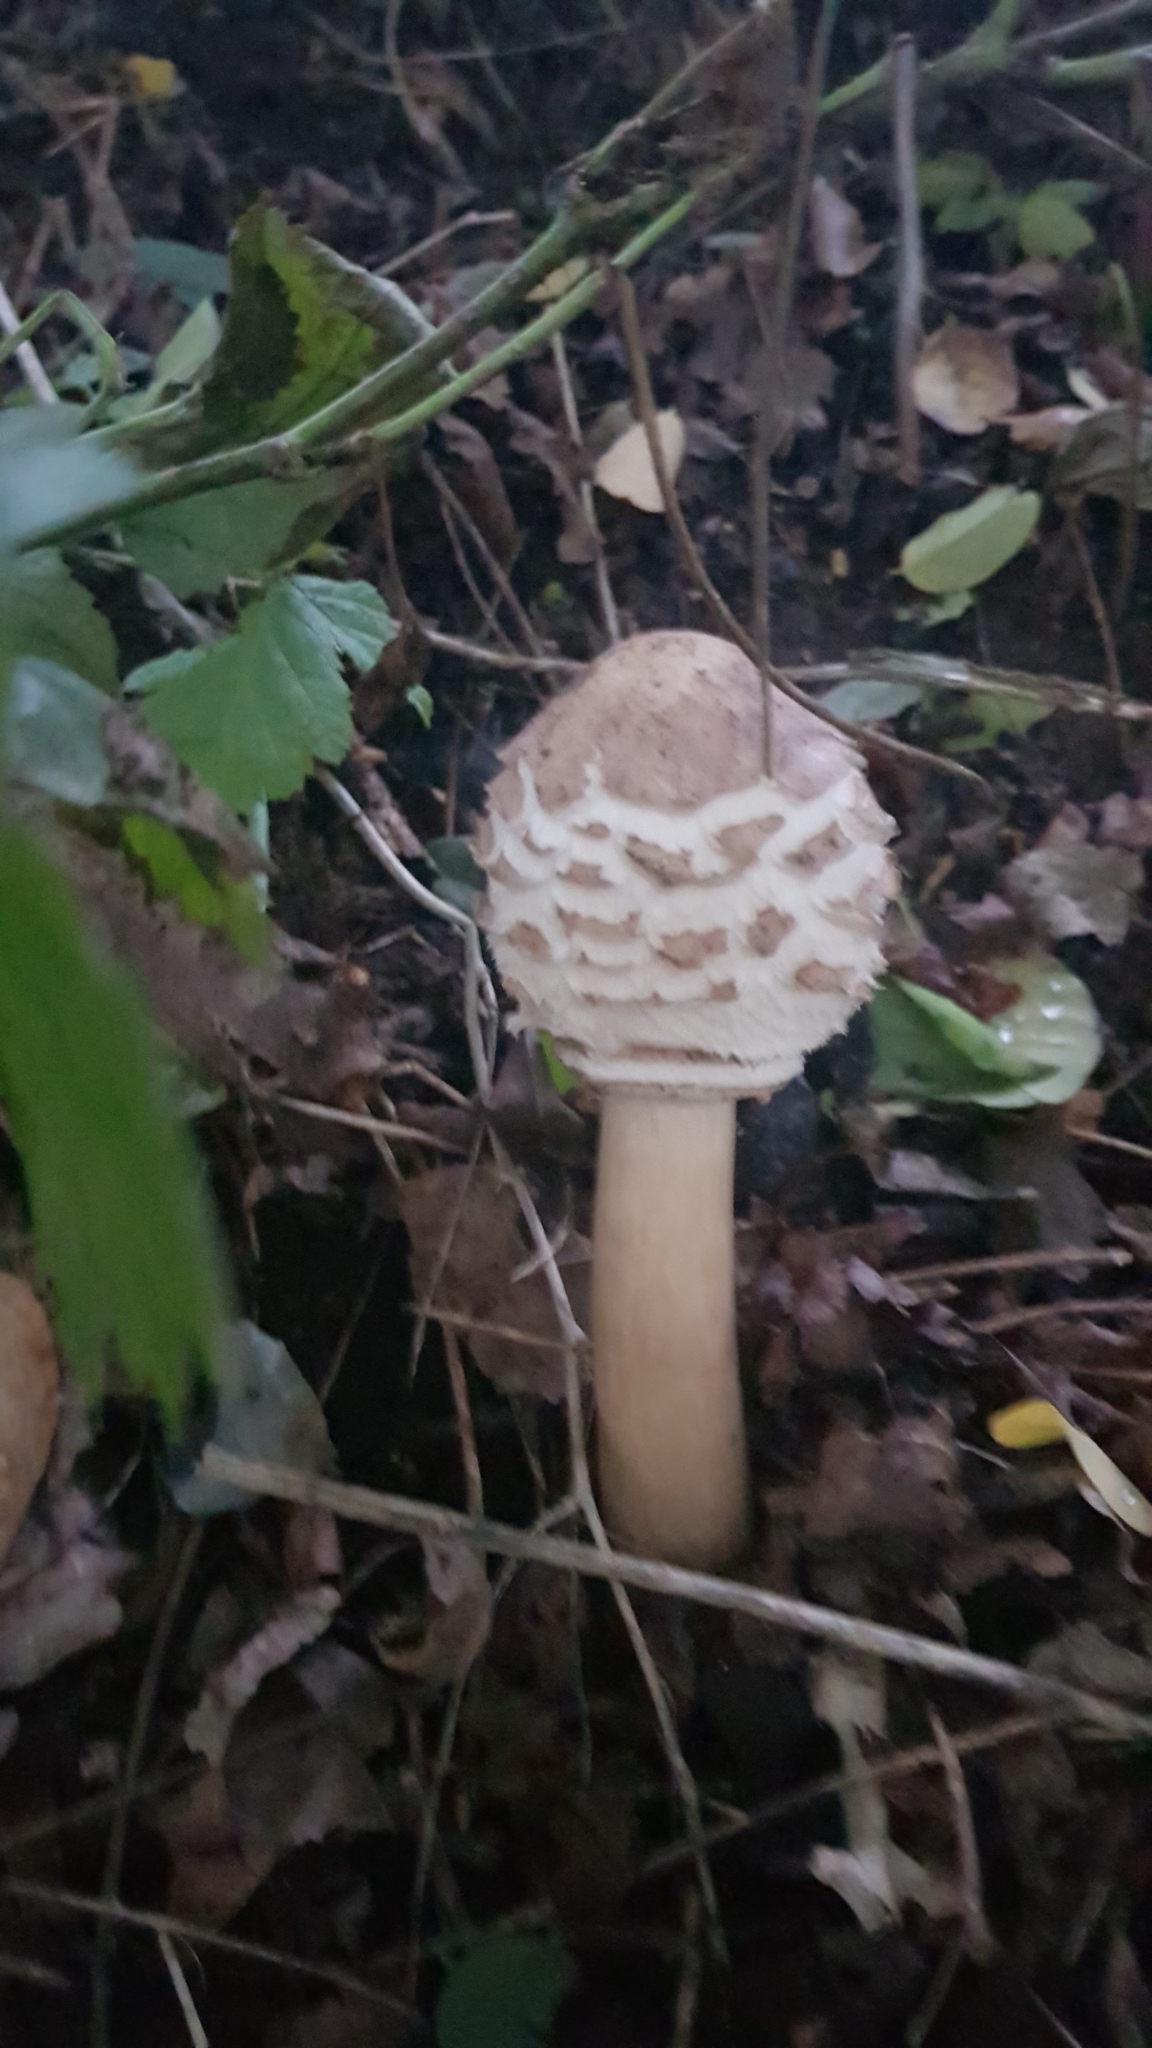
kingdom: Fungi
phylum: Basidiomycota
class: Agaricomycetes
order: Agaricales
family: Agaricaceae
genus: Chlorophyllum
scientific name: Chlorophyllum rhacodes
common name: Shaggy parasol
